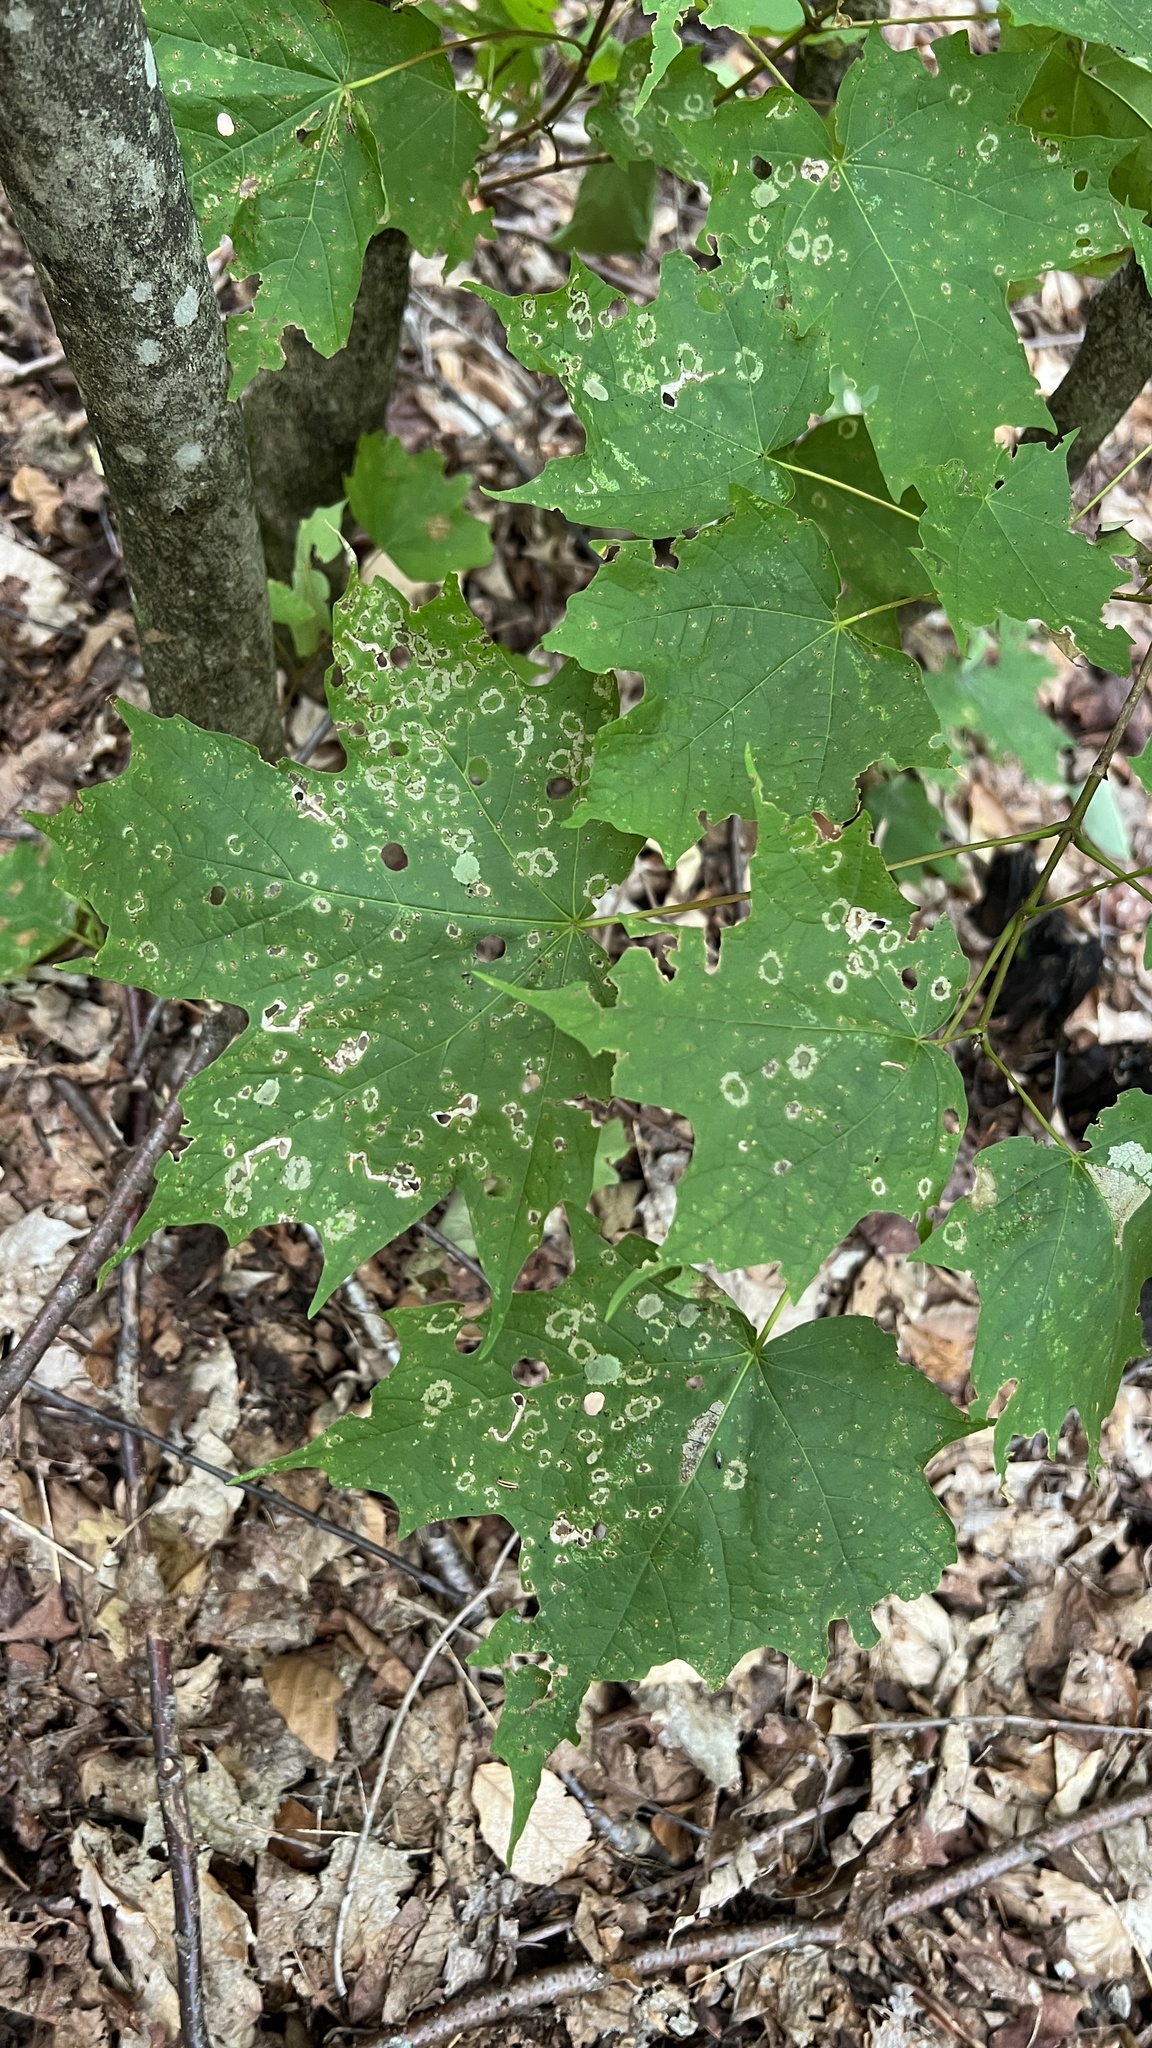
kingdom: Animalia
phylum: Arthropoda
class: Insecta
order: Lepidoptera
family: Incurvariidae
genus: Paraclemensia
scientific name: Paraclemensia acerifoliella
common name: Maple leafcutter
